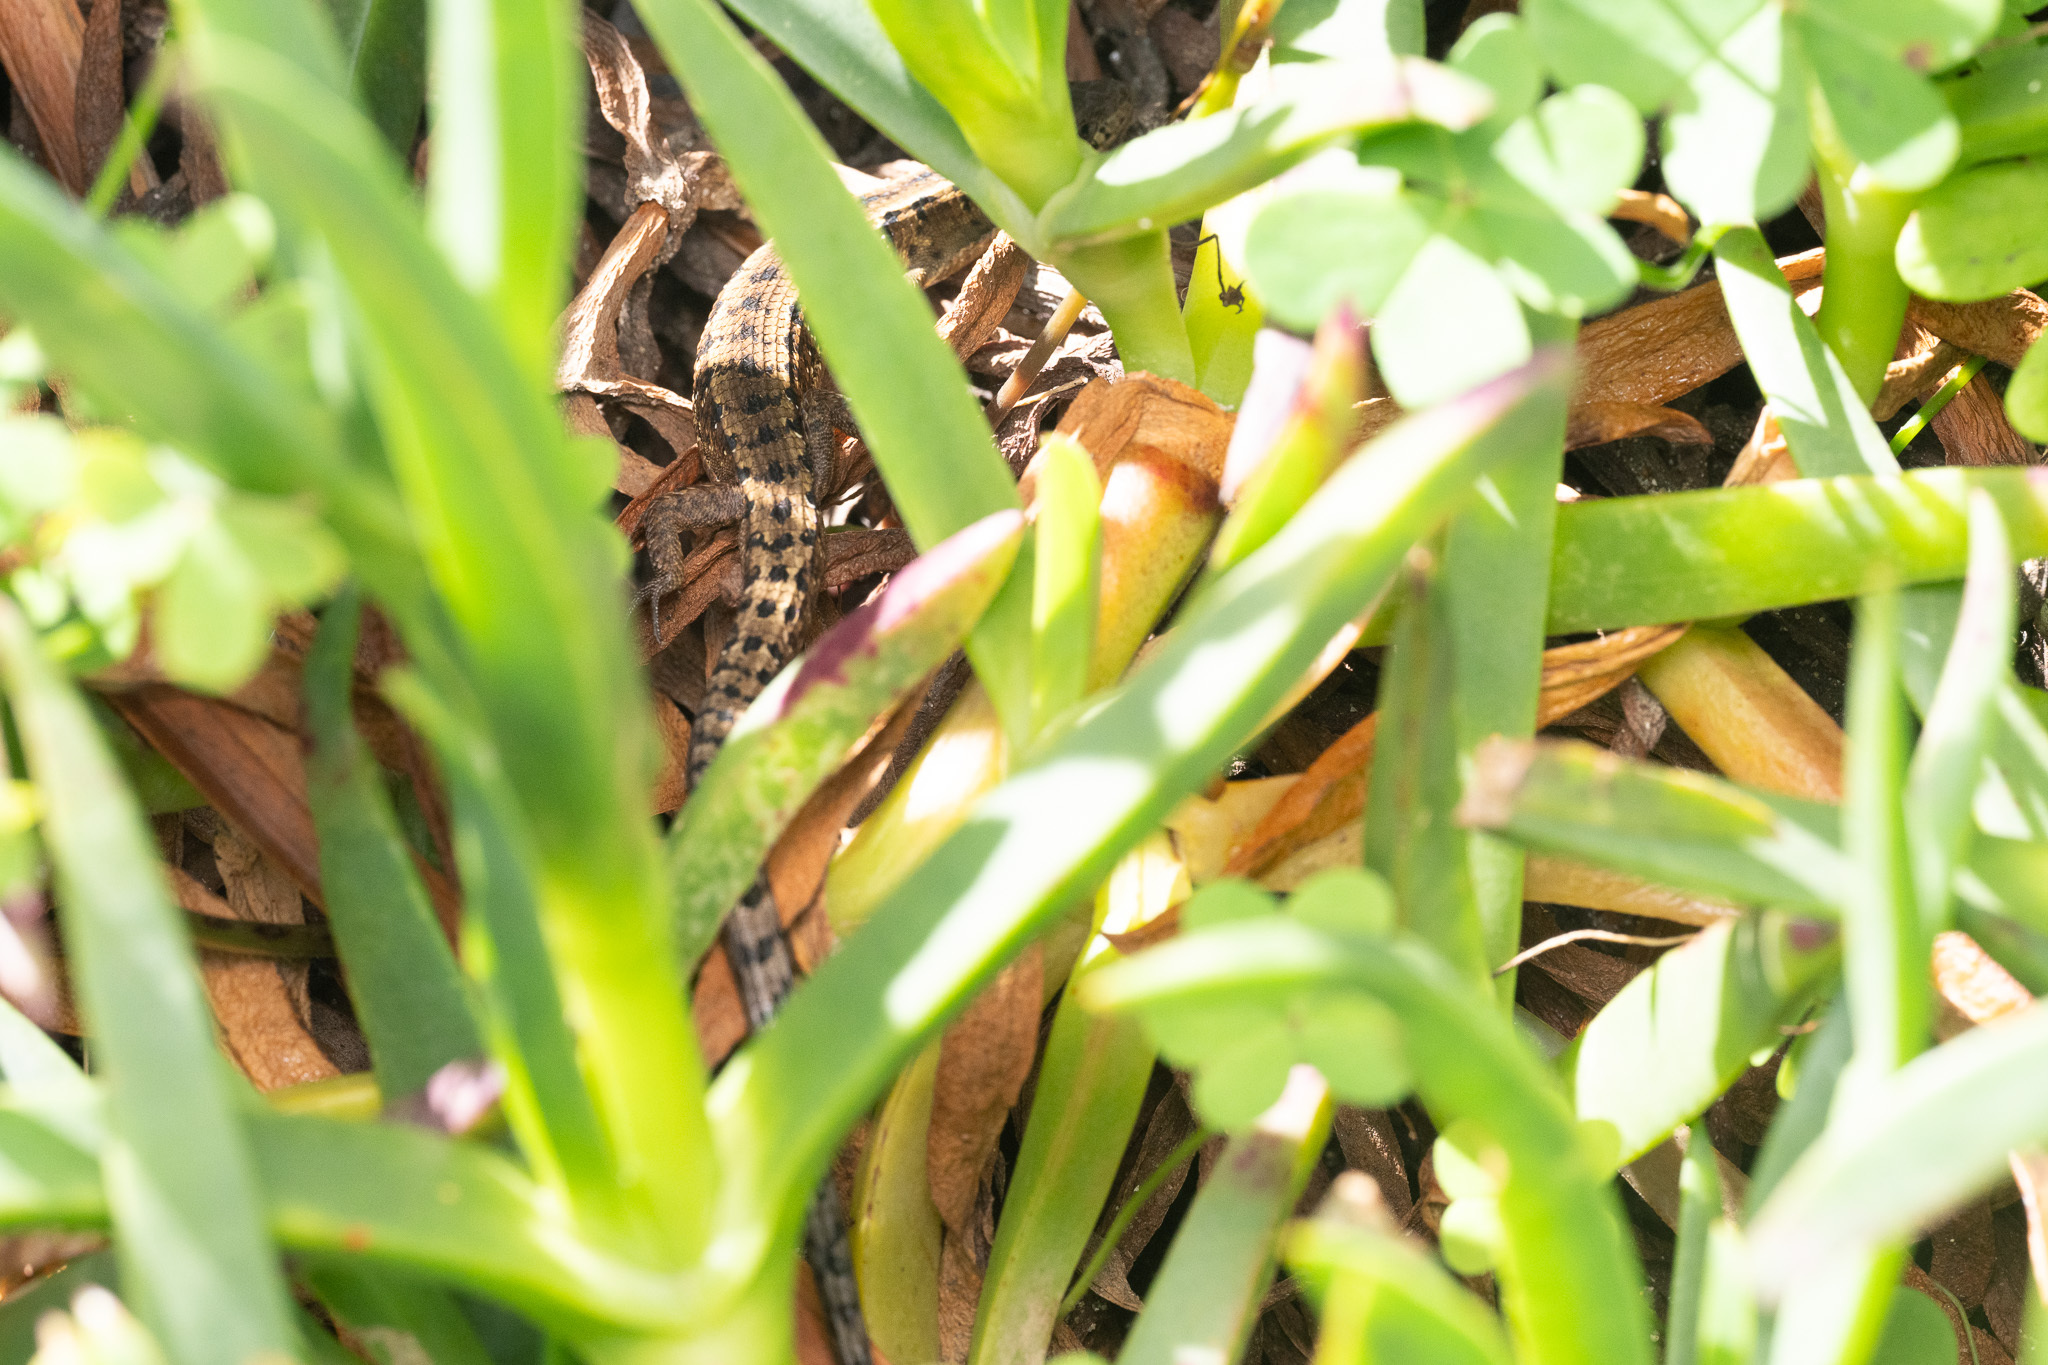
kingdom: Animalia
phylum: Chordata
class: Squamata
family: Anguidae
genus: Elgaria
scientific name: Elgaria coerulea
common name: Northern alligator lizard
